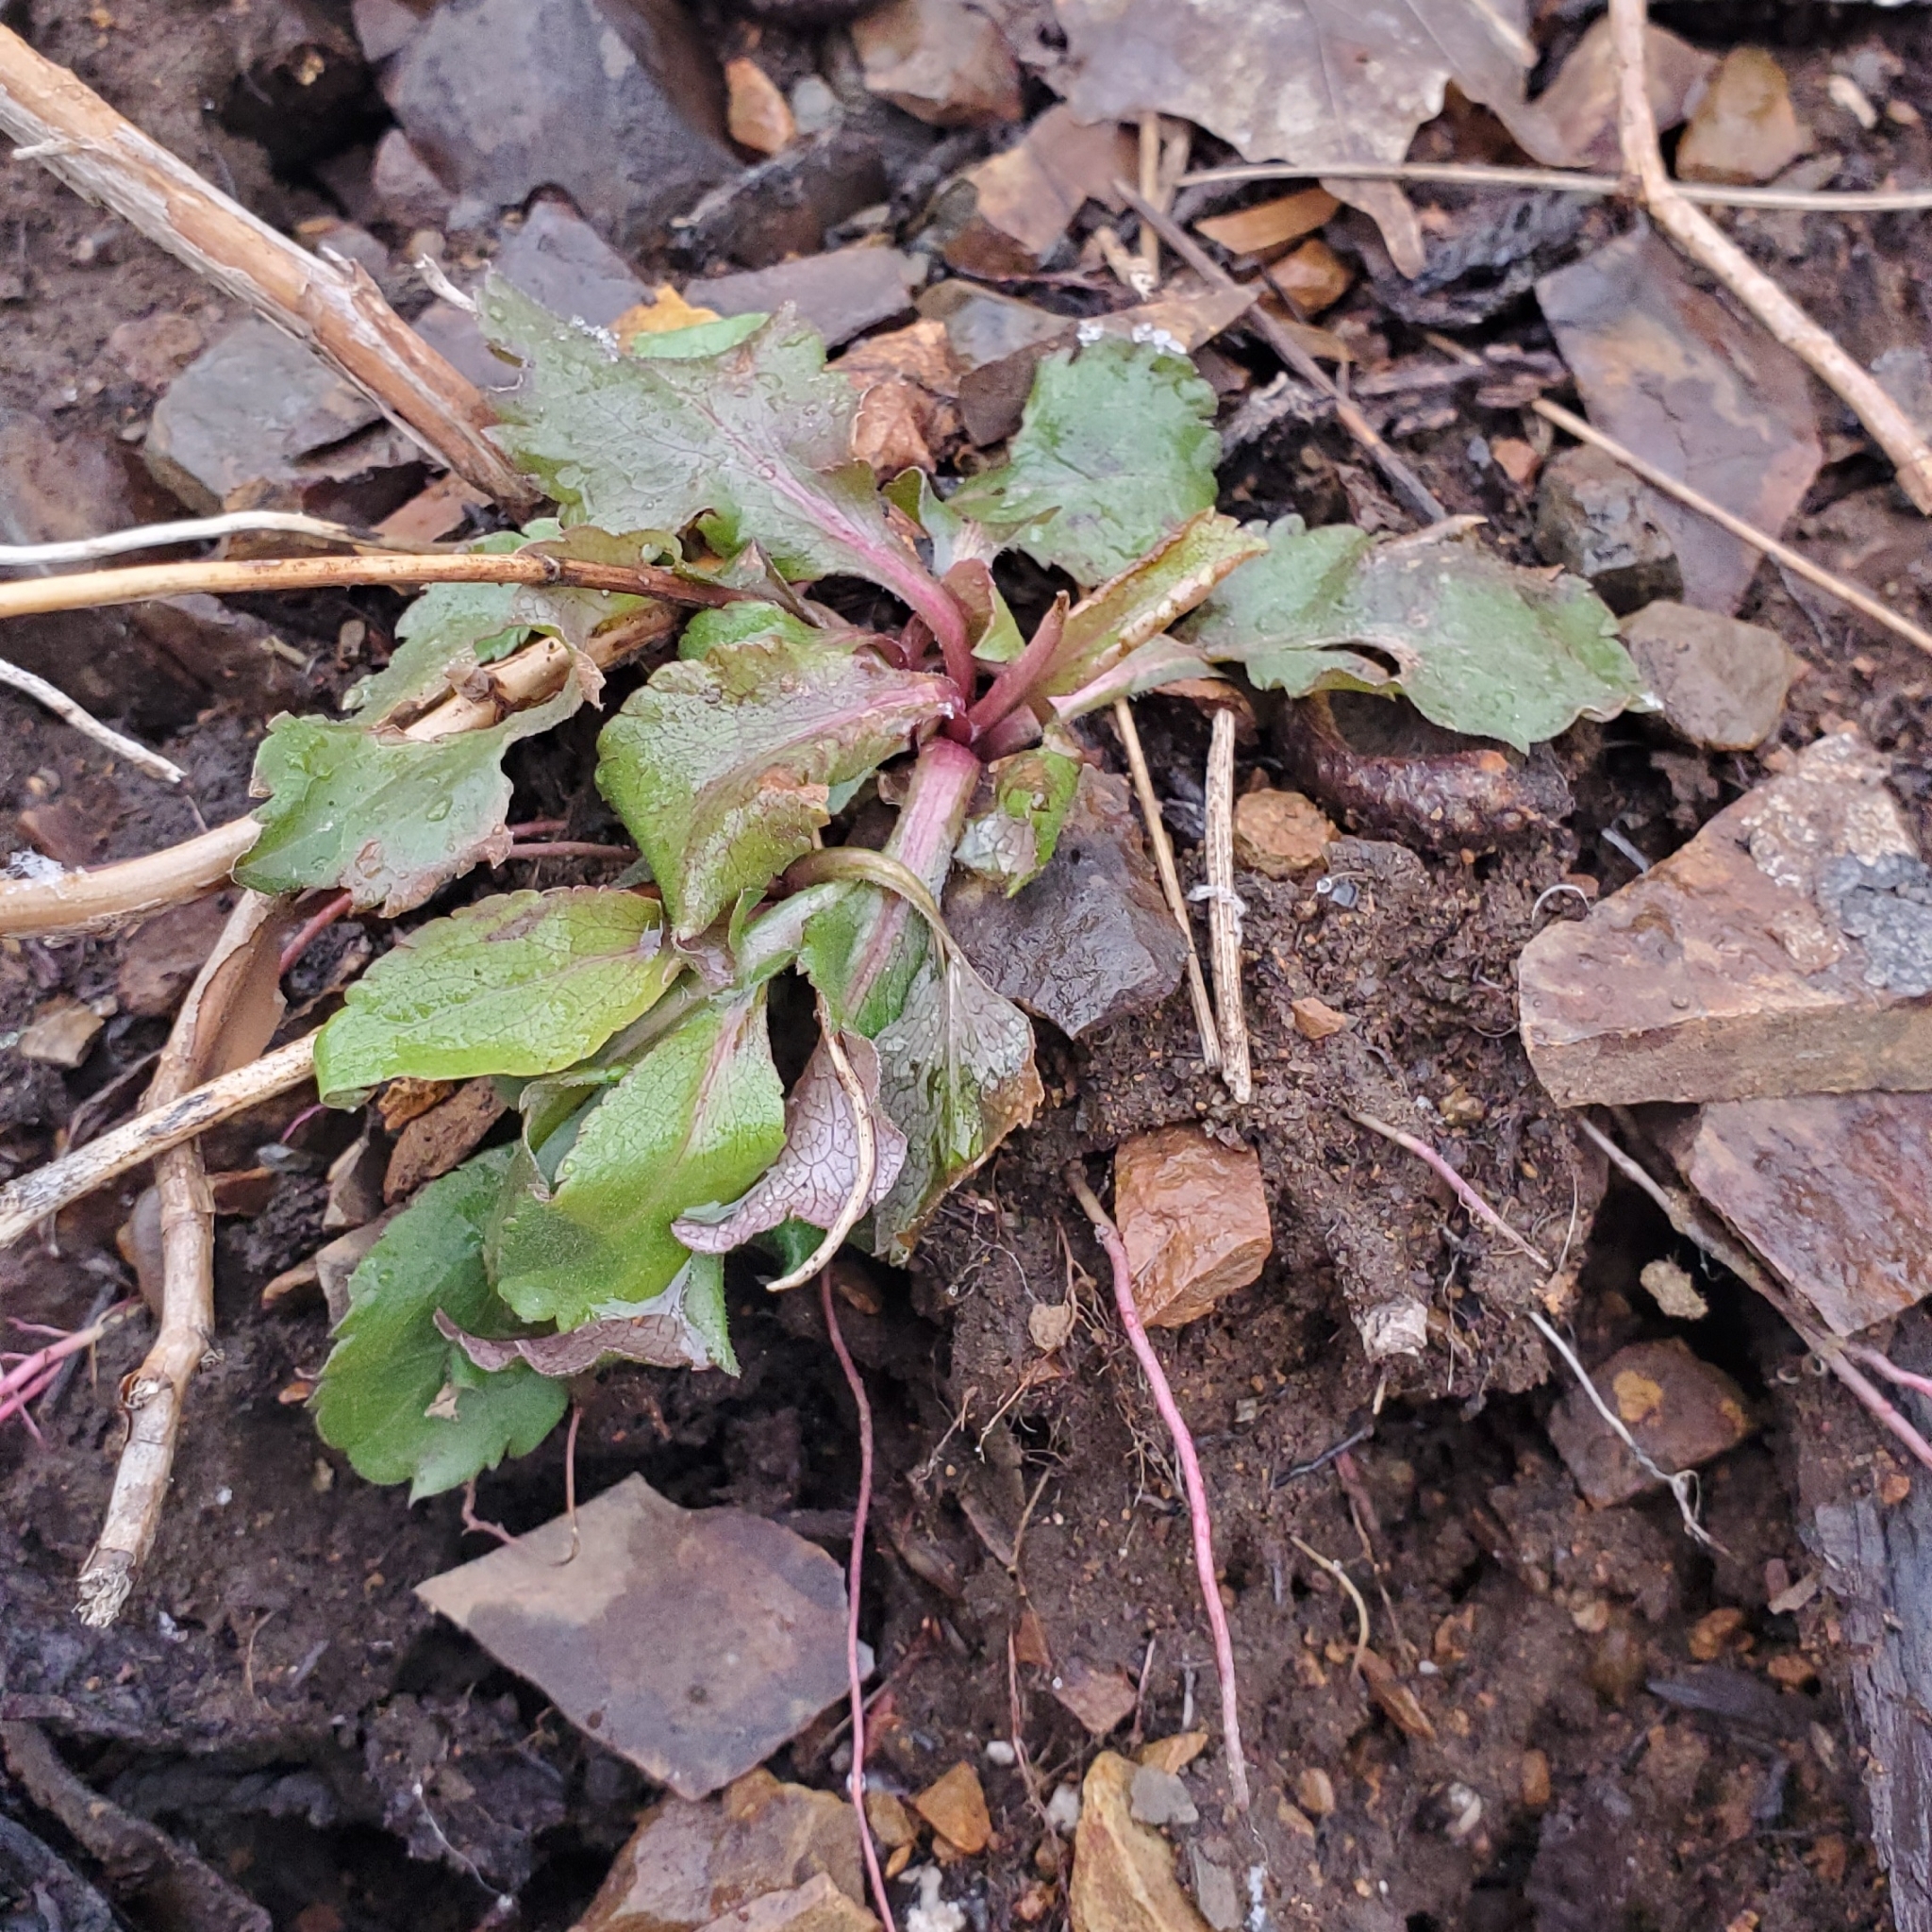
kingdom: Plantae
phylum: Tracheophyta
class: Magnoliopsida
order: Saxifragales
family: Saxifragaceae
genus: Micranthes
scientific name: Micranthes virginiensis
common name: Early saxifrage
